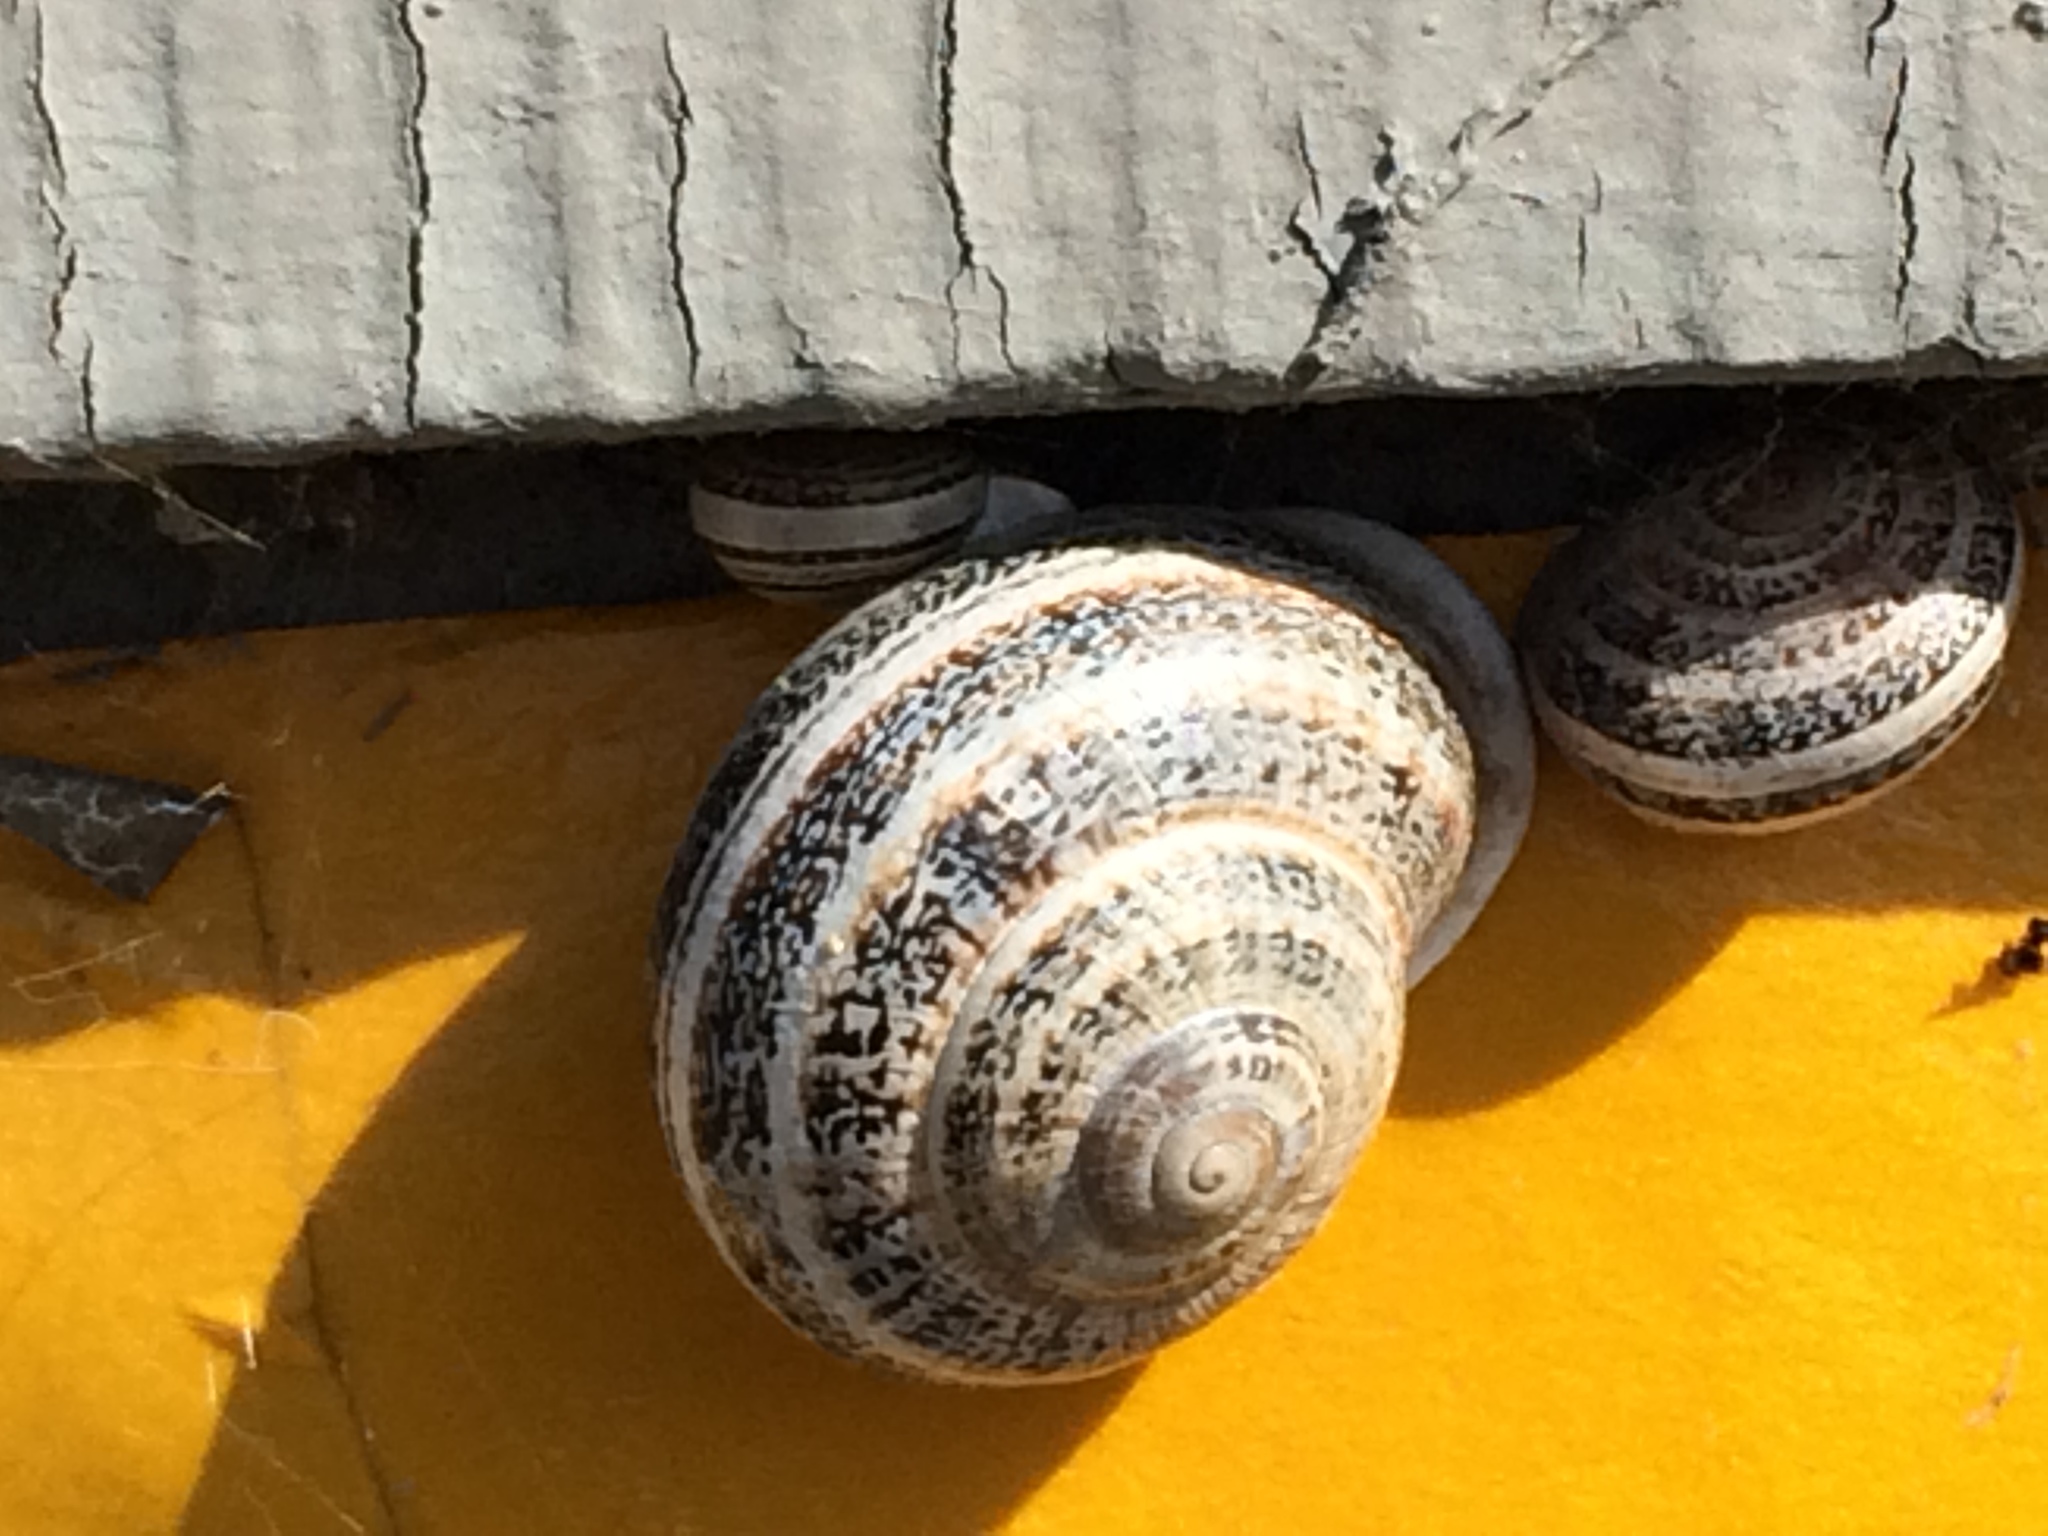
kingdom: Animalia
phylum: Mollusca
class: Gastropoda
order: Stylommatophora
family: Helicidae
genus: Otala
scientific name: Otala lactea
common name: Milk snail
